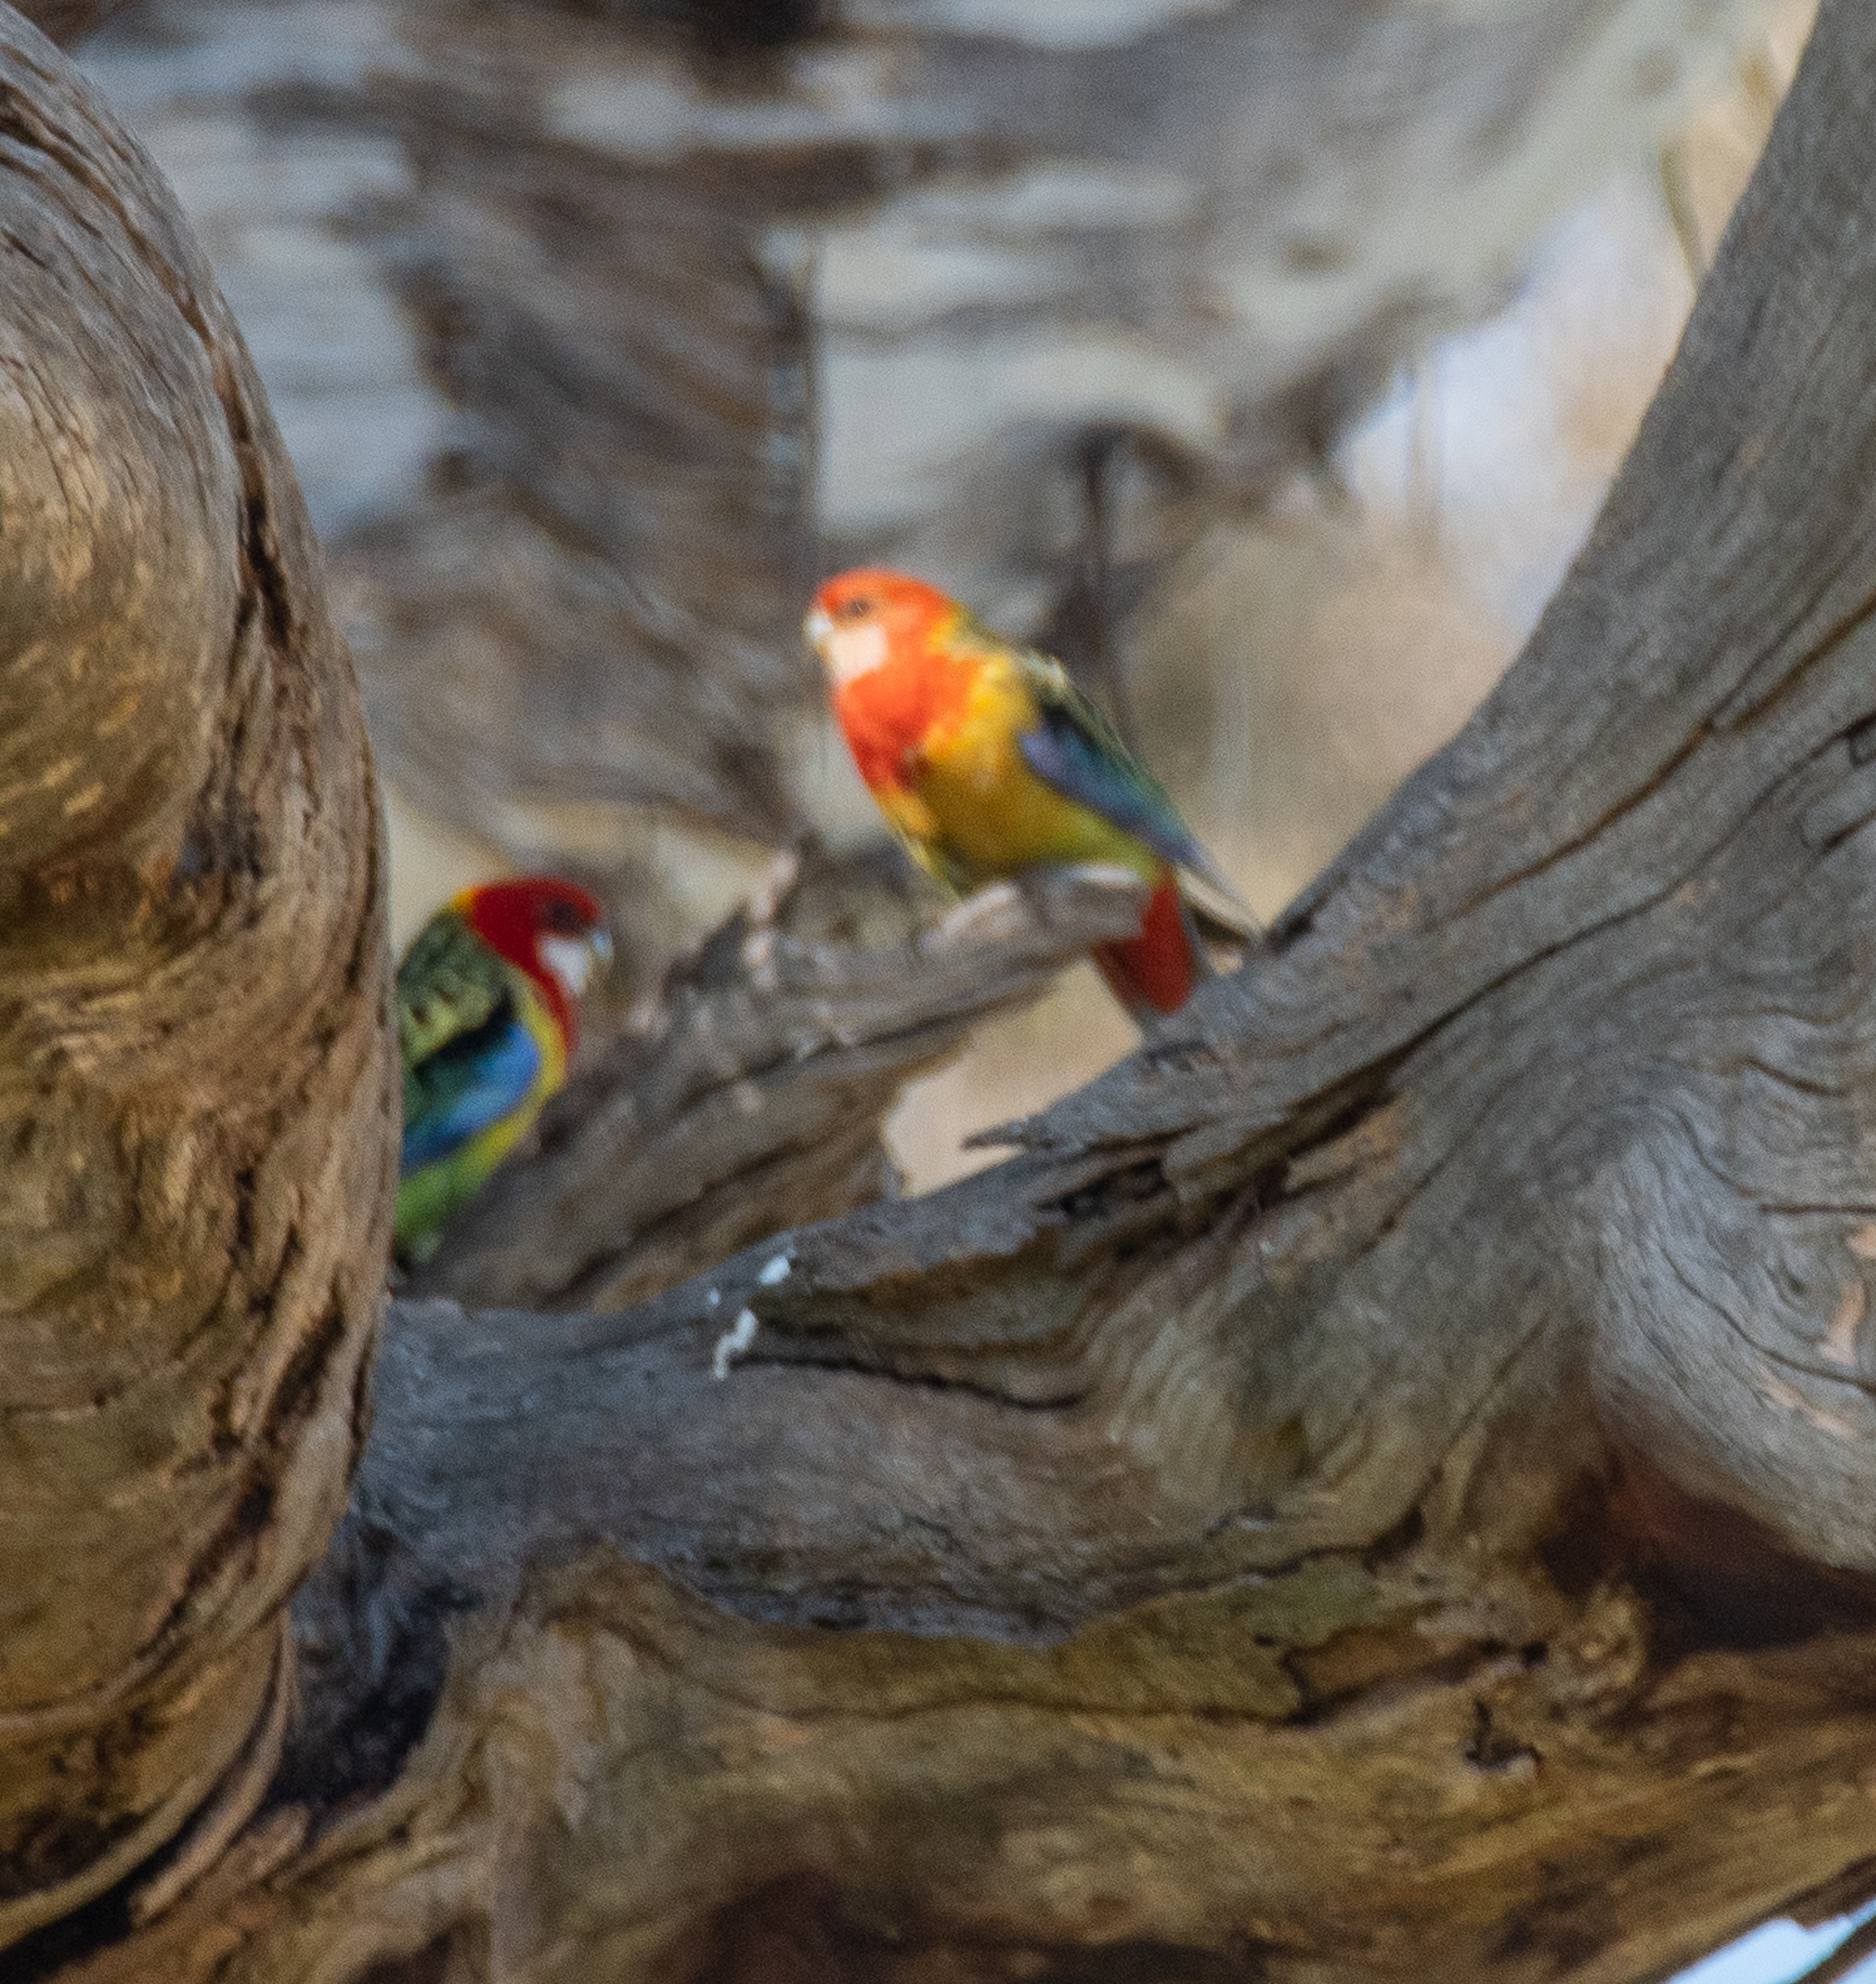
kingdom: Animalia
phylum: Chordata
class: Aves
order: Psittaciformes
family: Psittacidae
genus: Platycercus
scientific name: Platycercus eximius
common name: Eastern rosella
